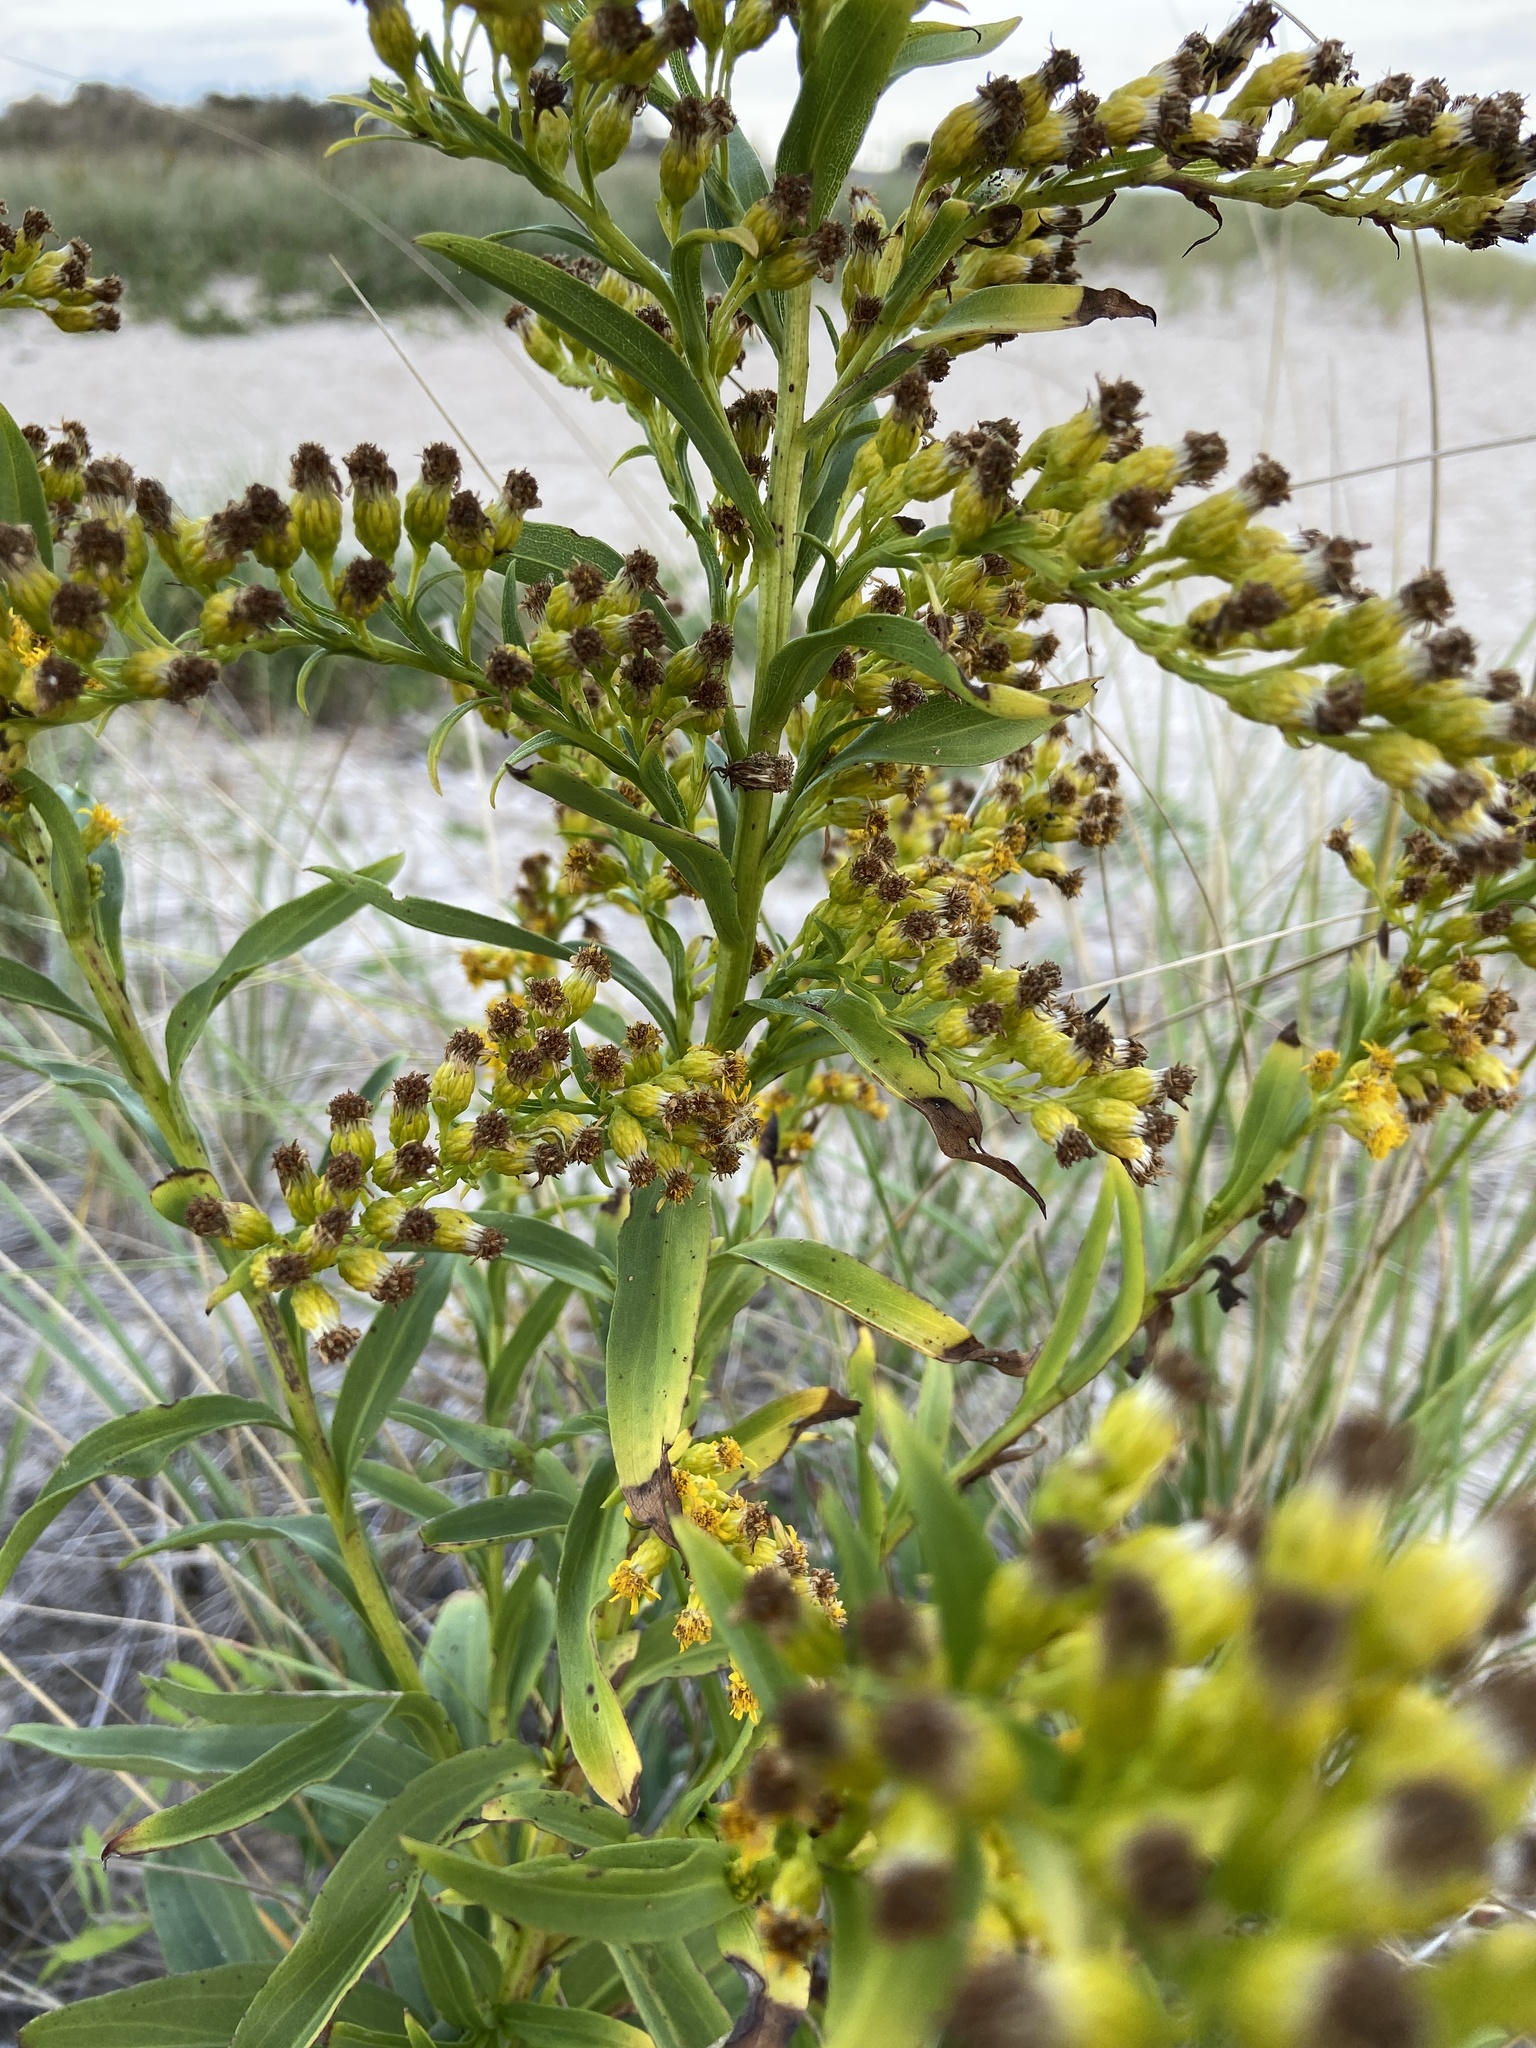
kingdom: Plantae
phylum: Tracheophyta
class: Magnoliopsida
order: Asterales
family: Asteraceae
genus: Solidago
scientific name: Solidago sempervirens
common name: Salt-marsh goldenrod
